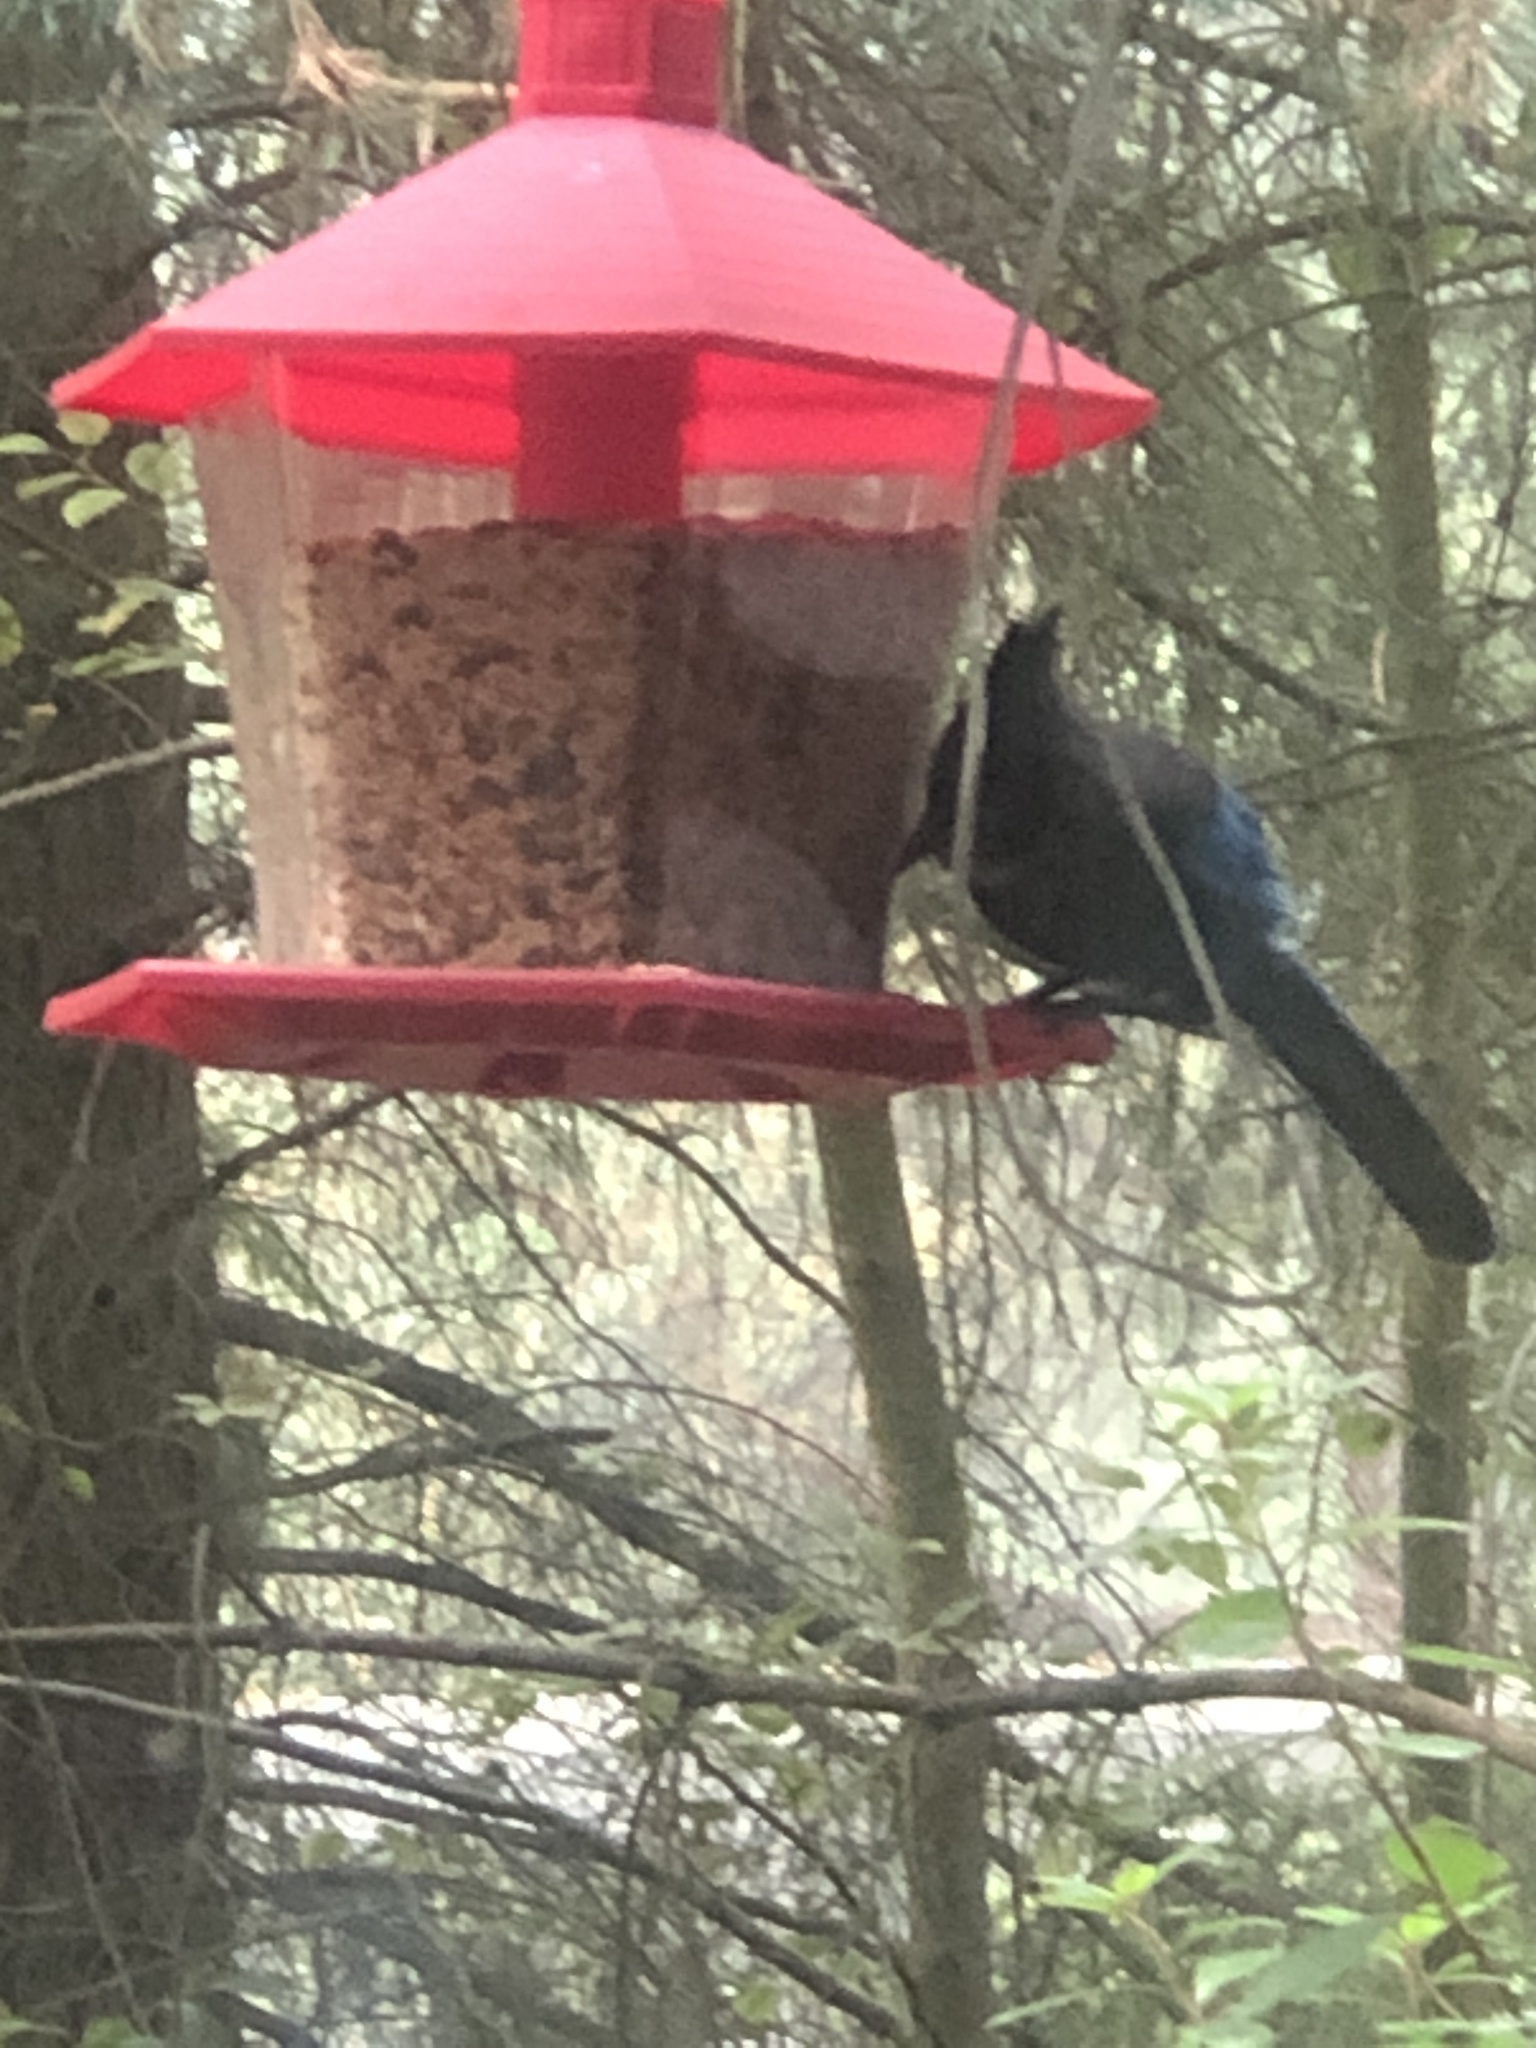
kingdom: Animalia
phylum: Chordata
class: Aves
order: Passeriformes
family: Corvidae
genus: Cyanocitta
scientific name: Cyanocitta stelleri
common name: Steller's jay
